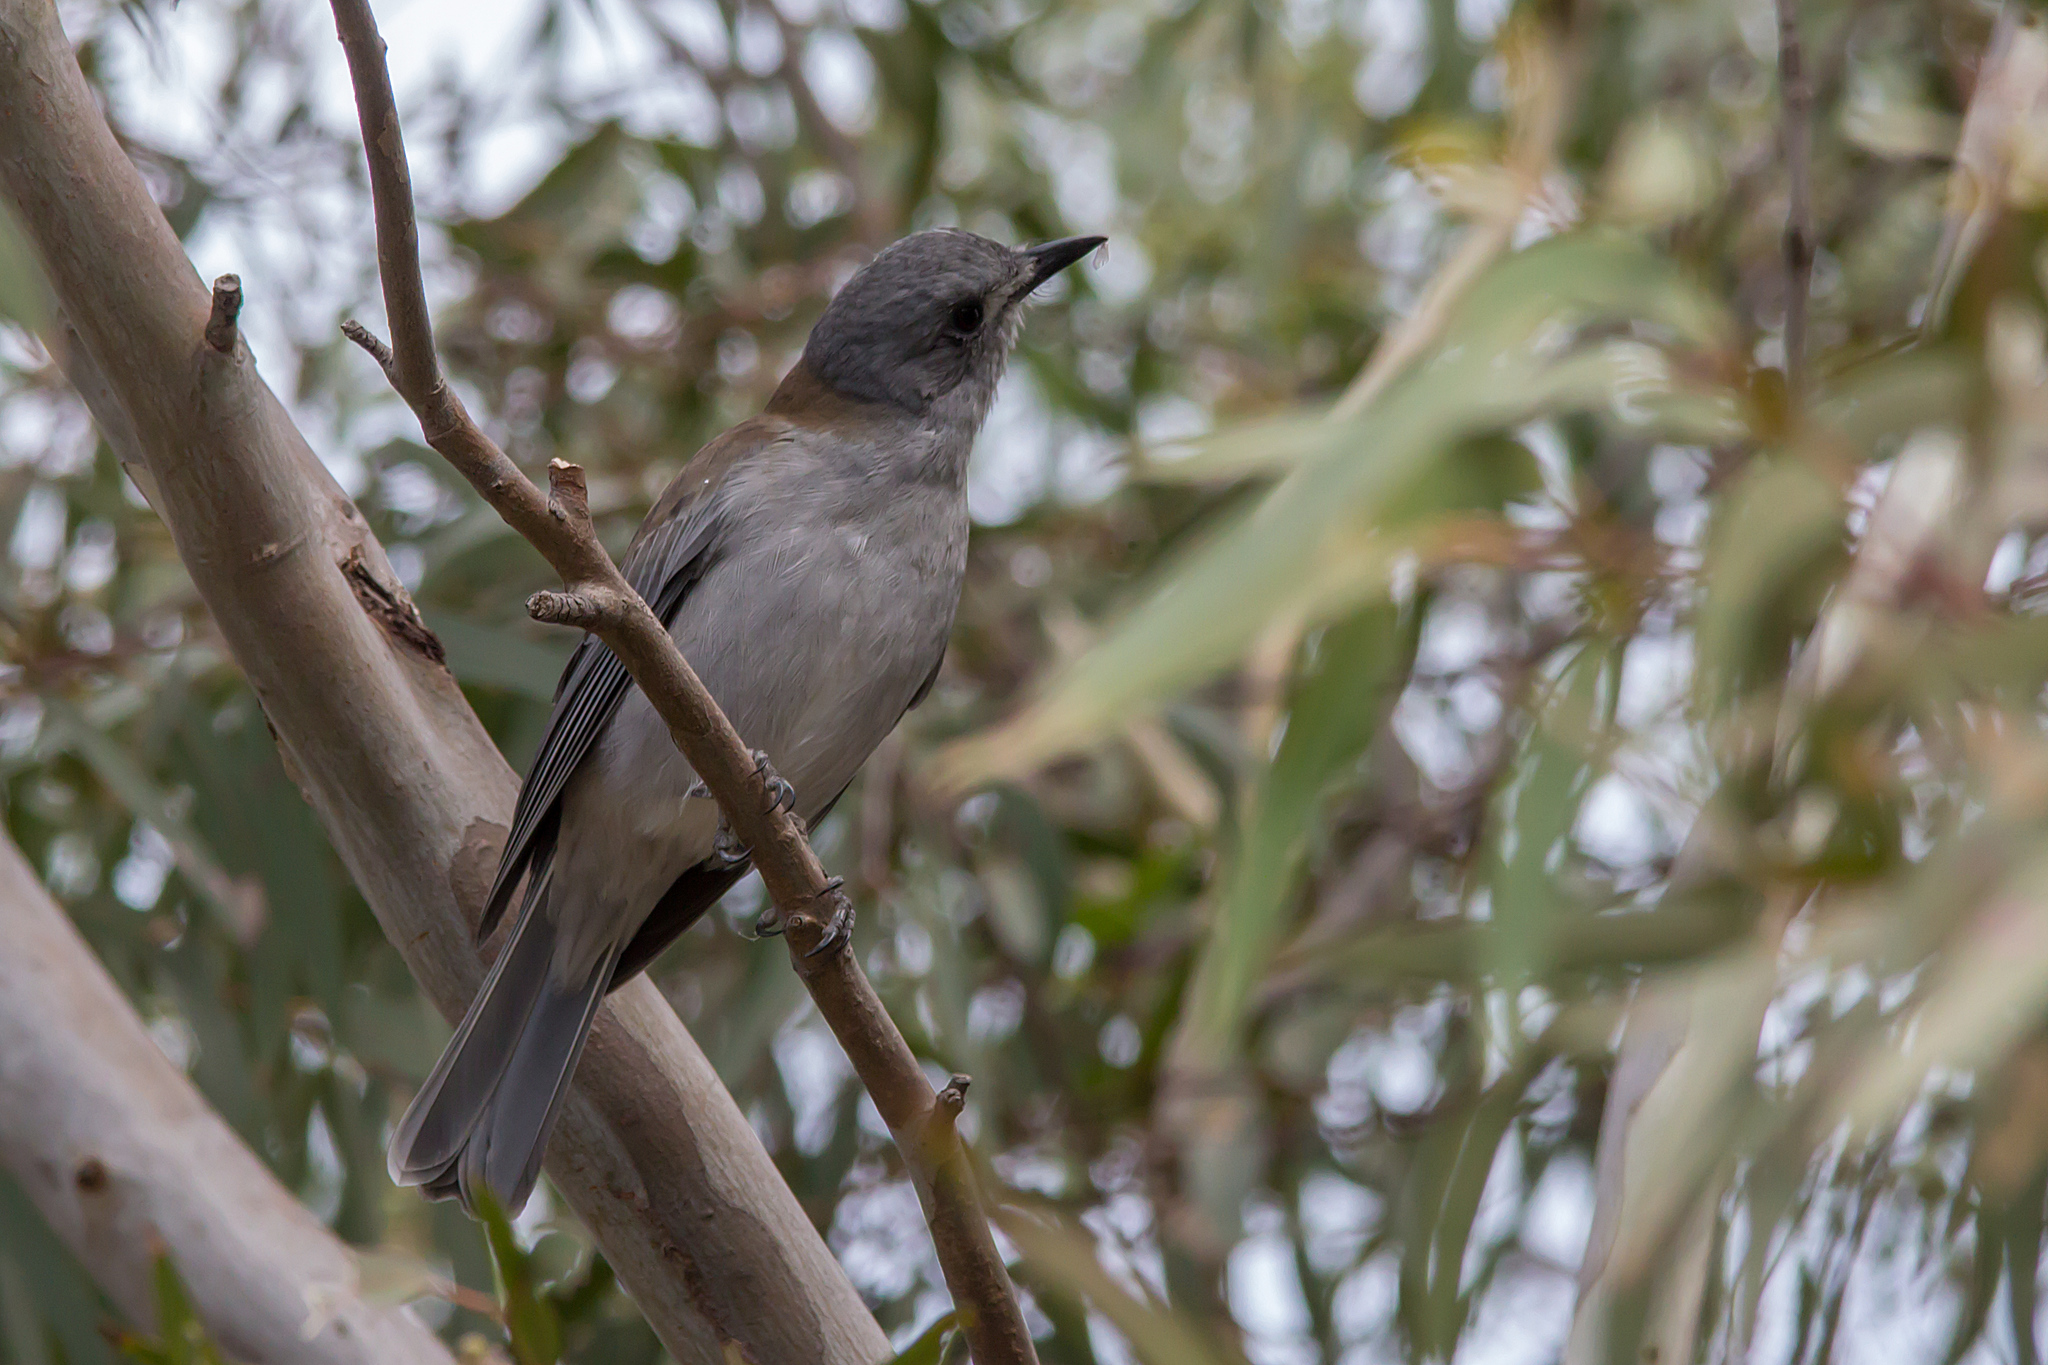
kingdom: Animalia
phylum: Chordata
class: Aves
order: Passeriformes
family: Pachycephalidae
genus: Colluricincla
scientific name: Colluricincla harmonica
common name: Grey shrikethrush
